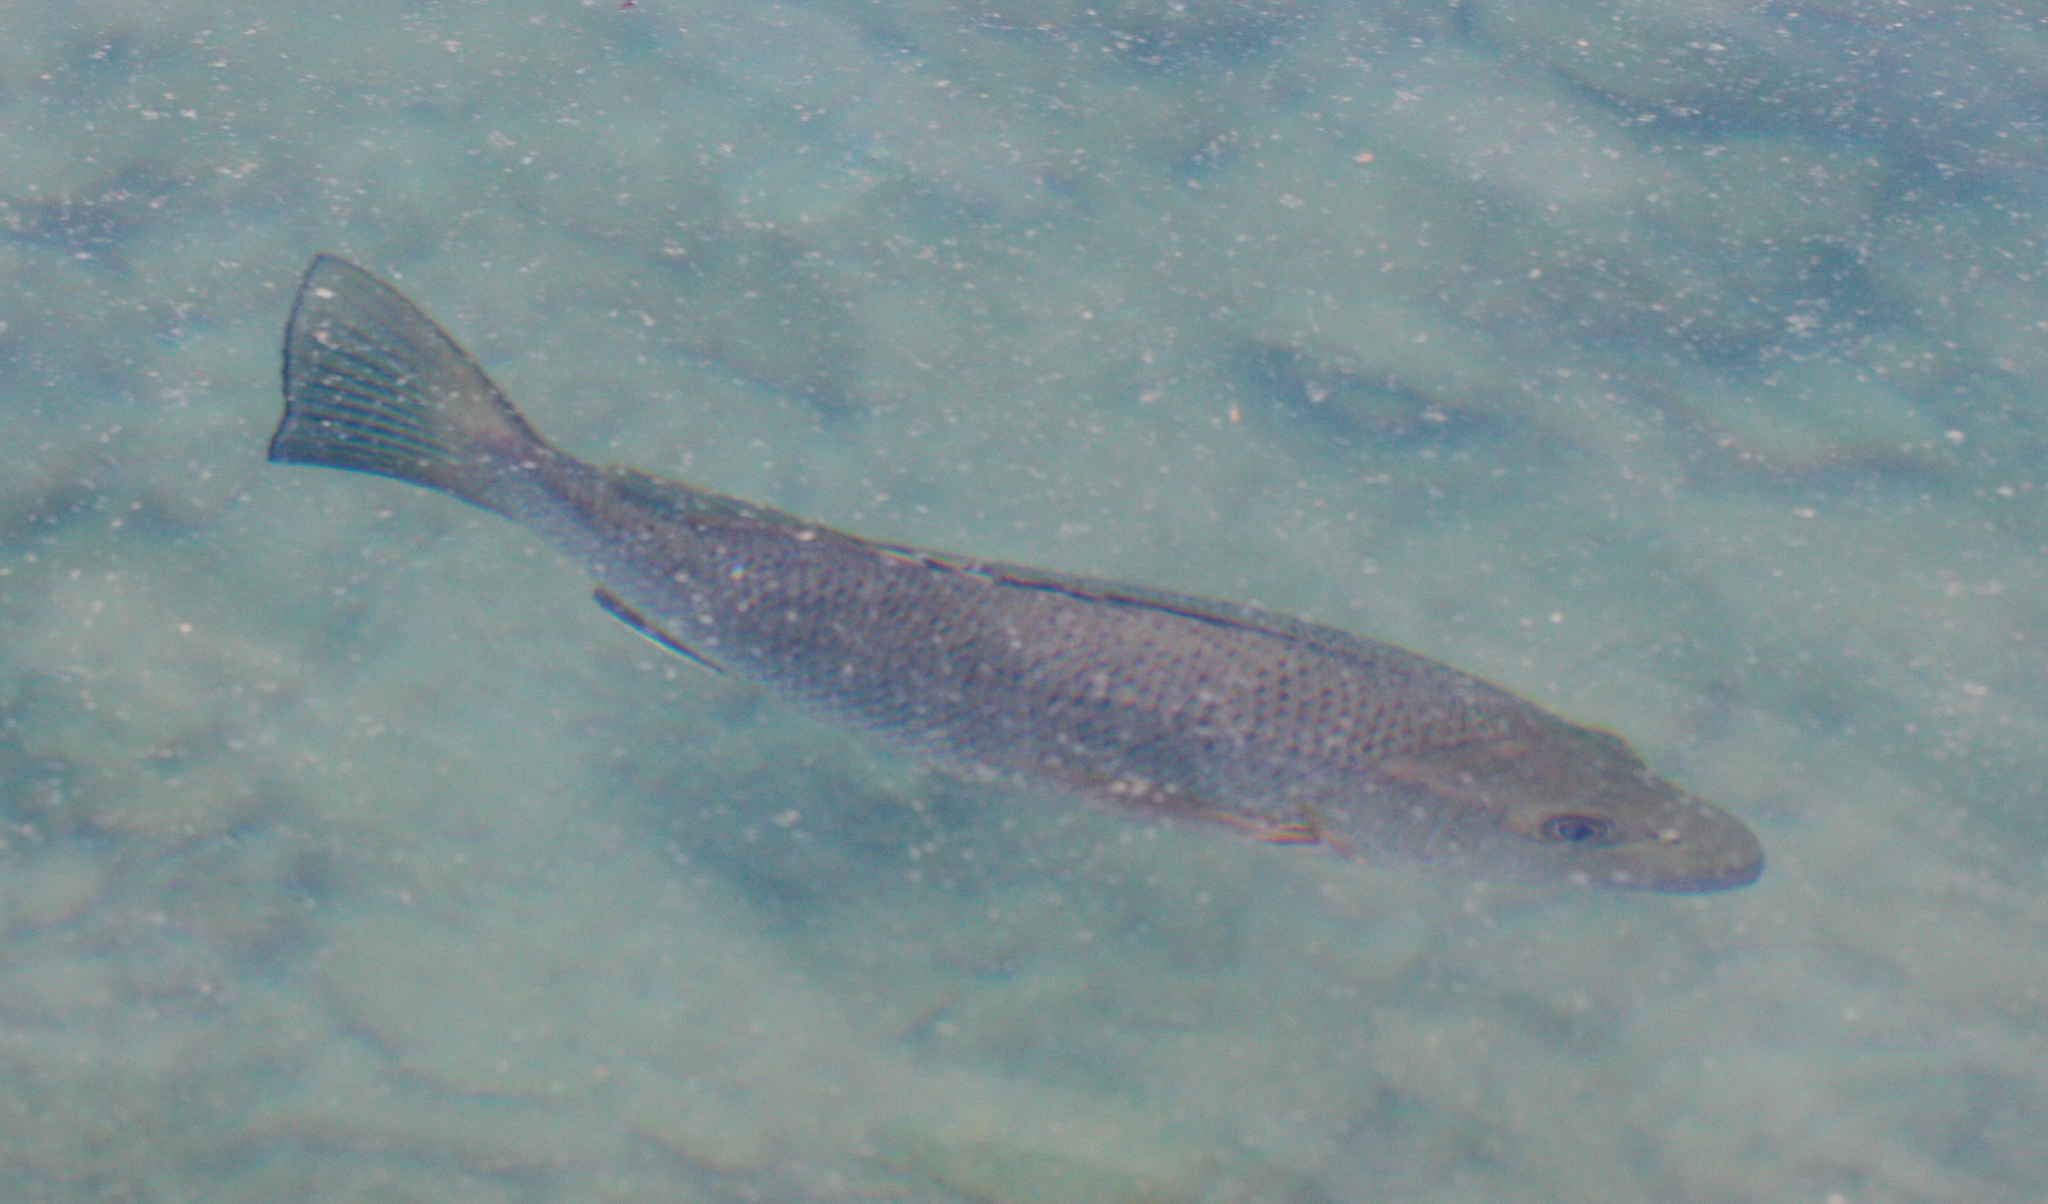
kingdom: Animalia
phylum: Chordata
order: Perciformes
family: Lutjanidae
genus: Lutjanus
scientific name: Lutjanus novemfasciatus
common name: Pacific dog snapper
